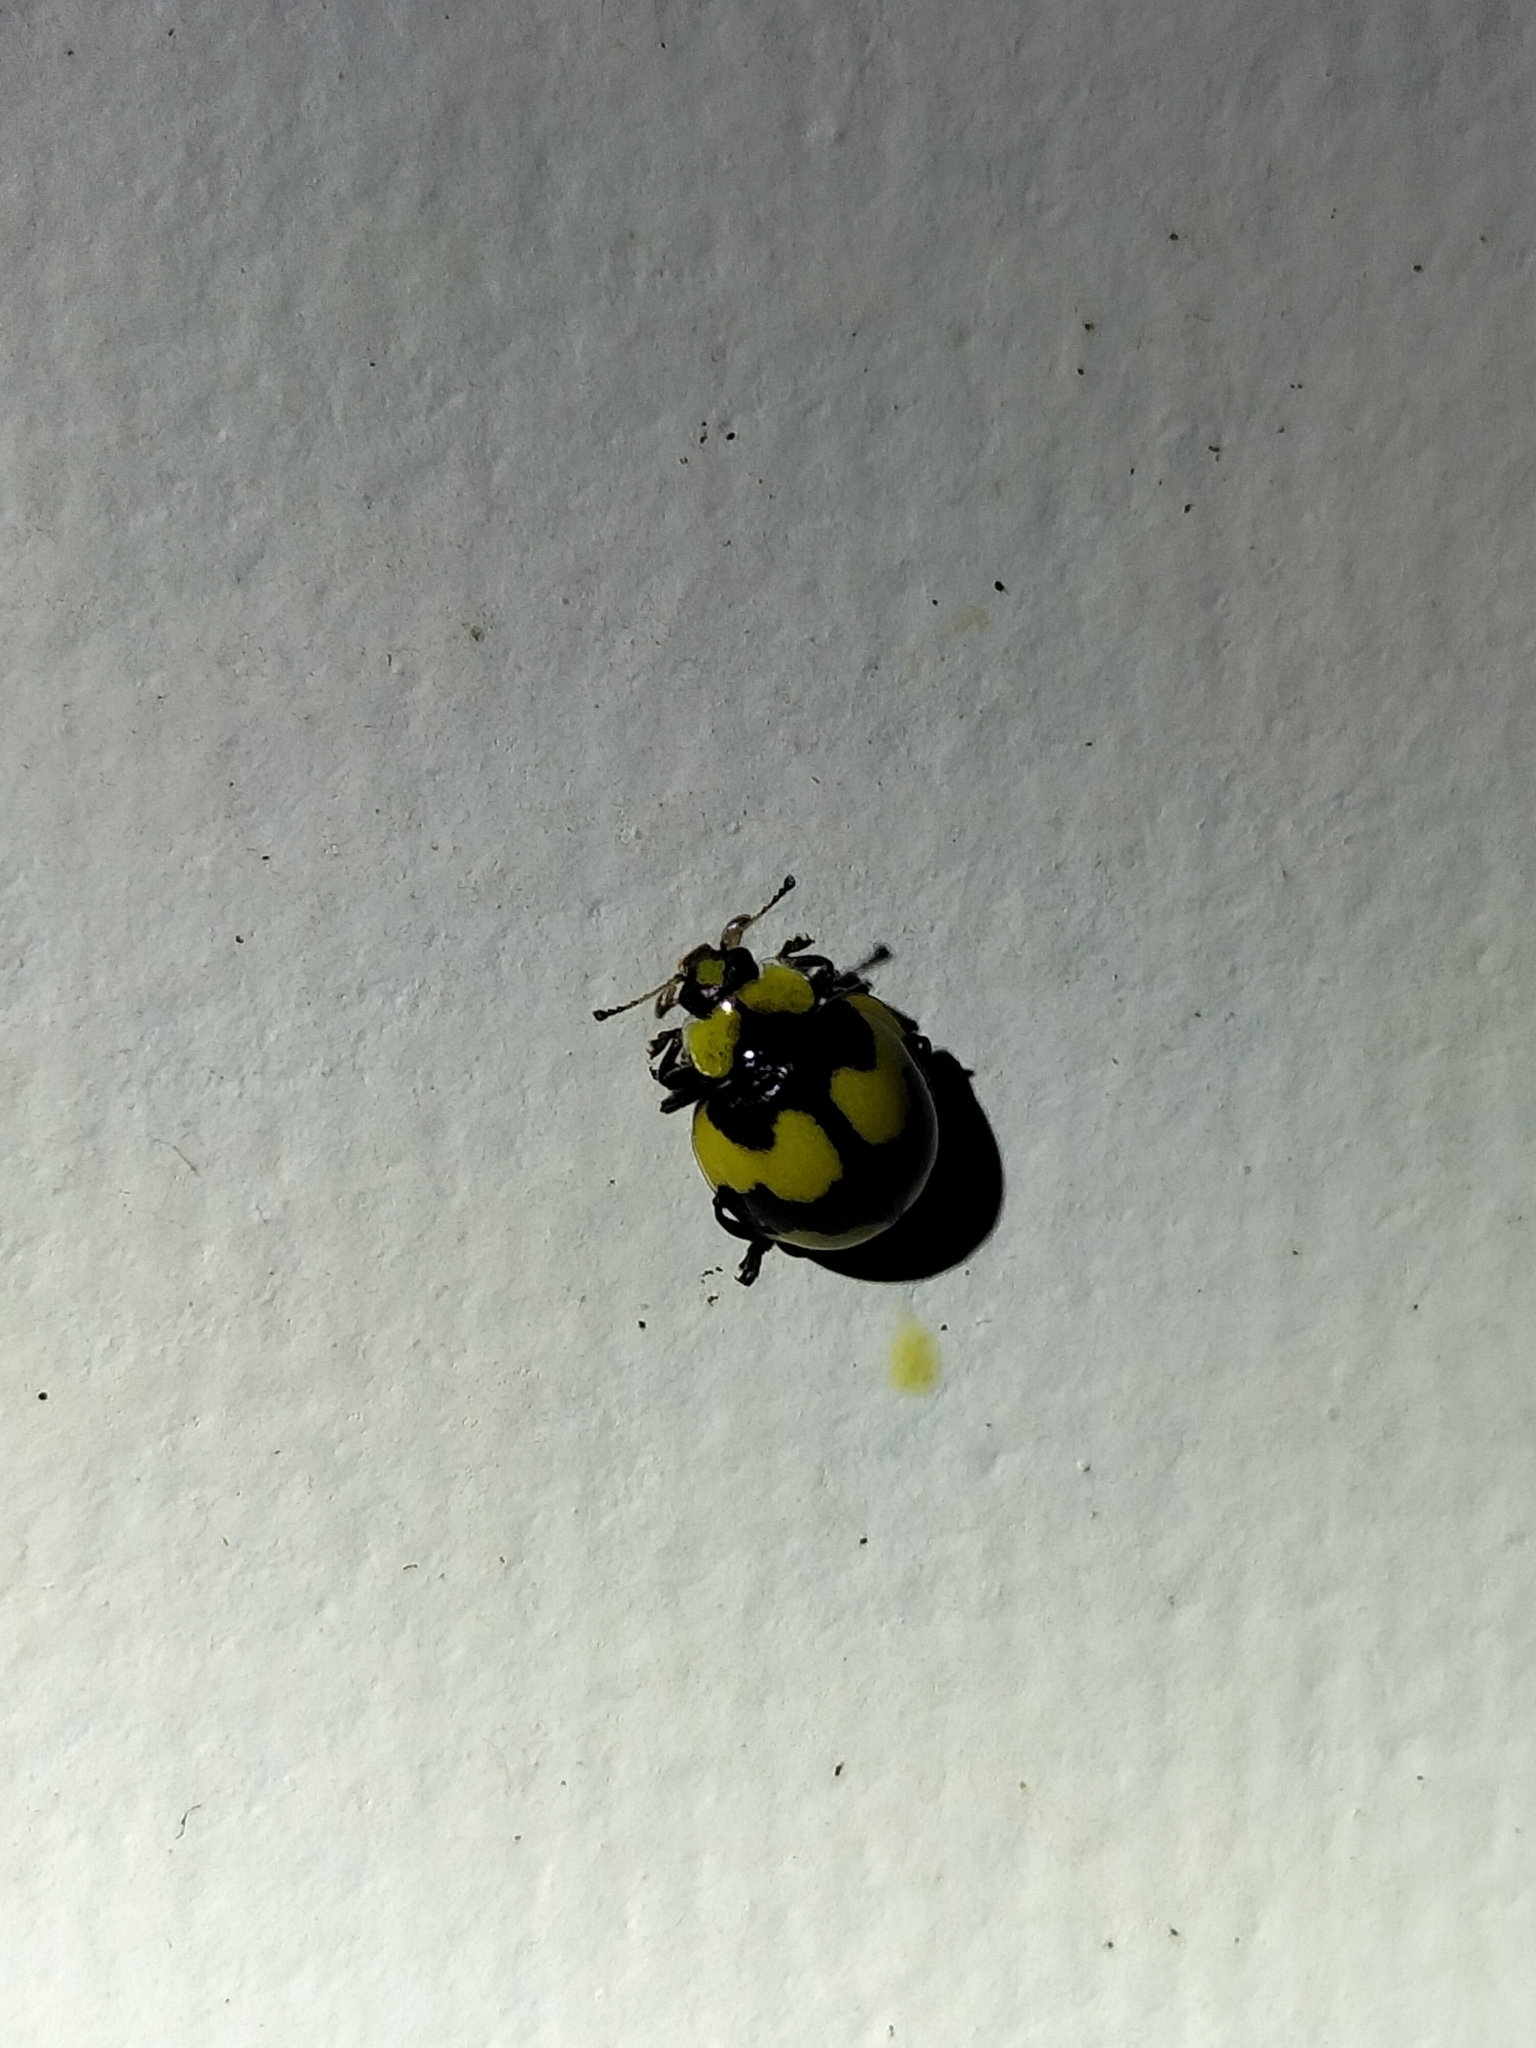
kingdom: Animalia
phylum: Arthropoda
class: Insecta
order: Coleoptera
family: Coccinellidae
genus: Illeis
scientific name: Illeis galbula
